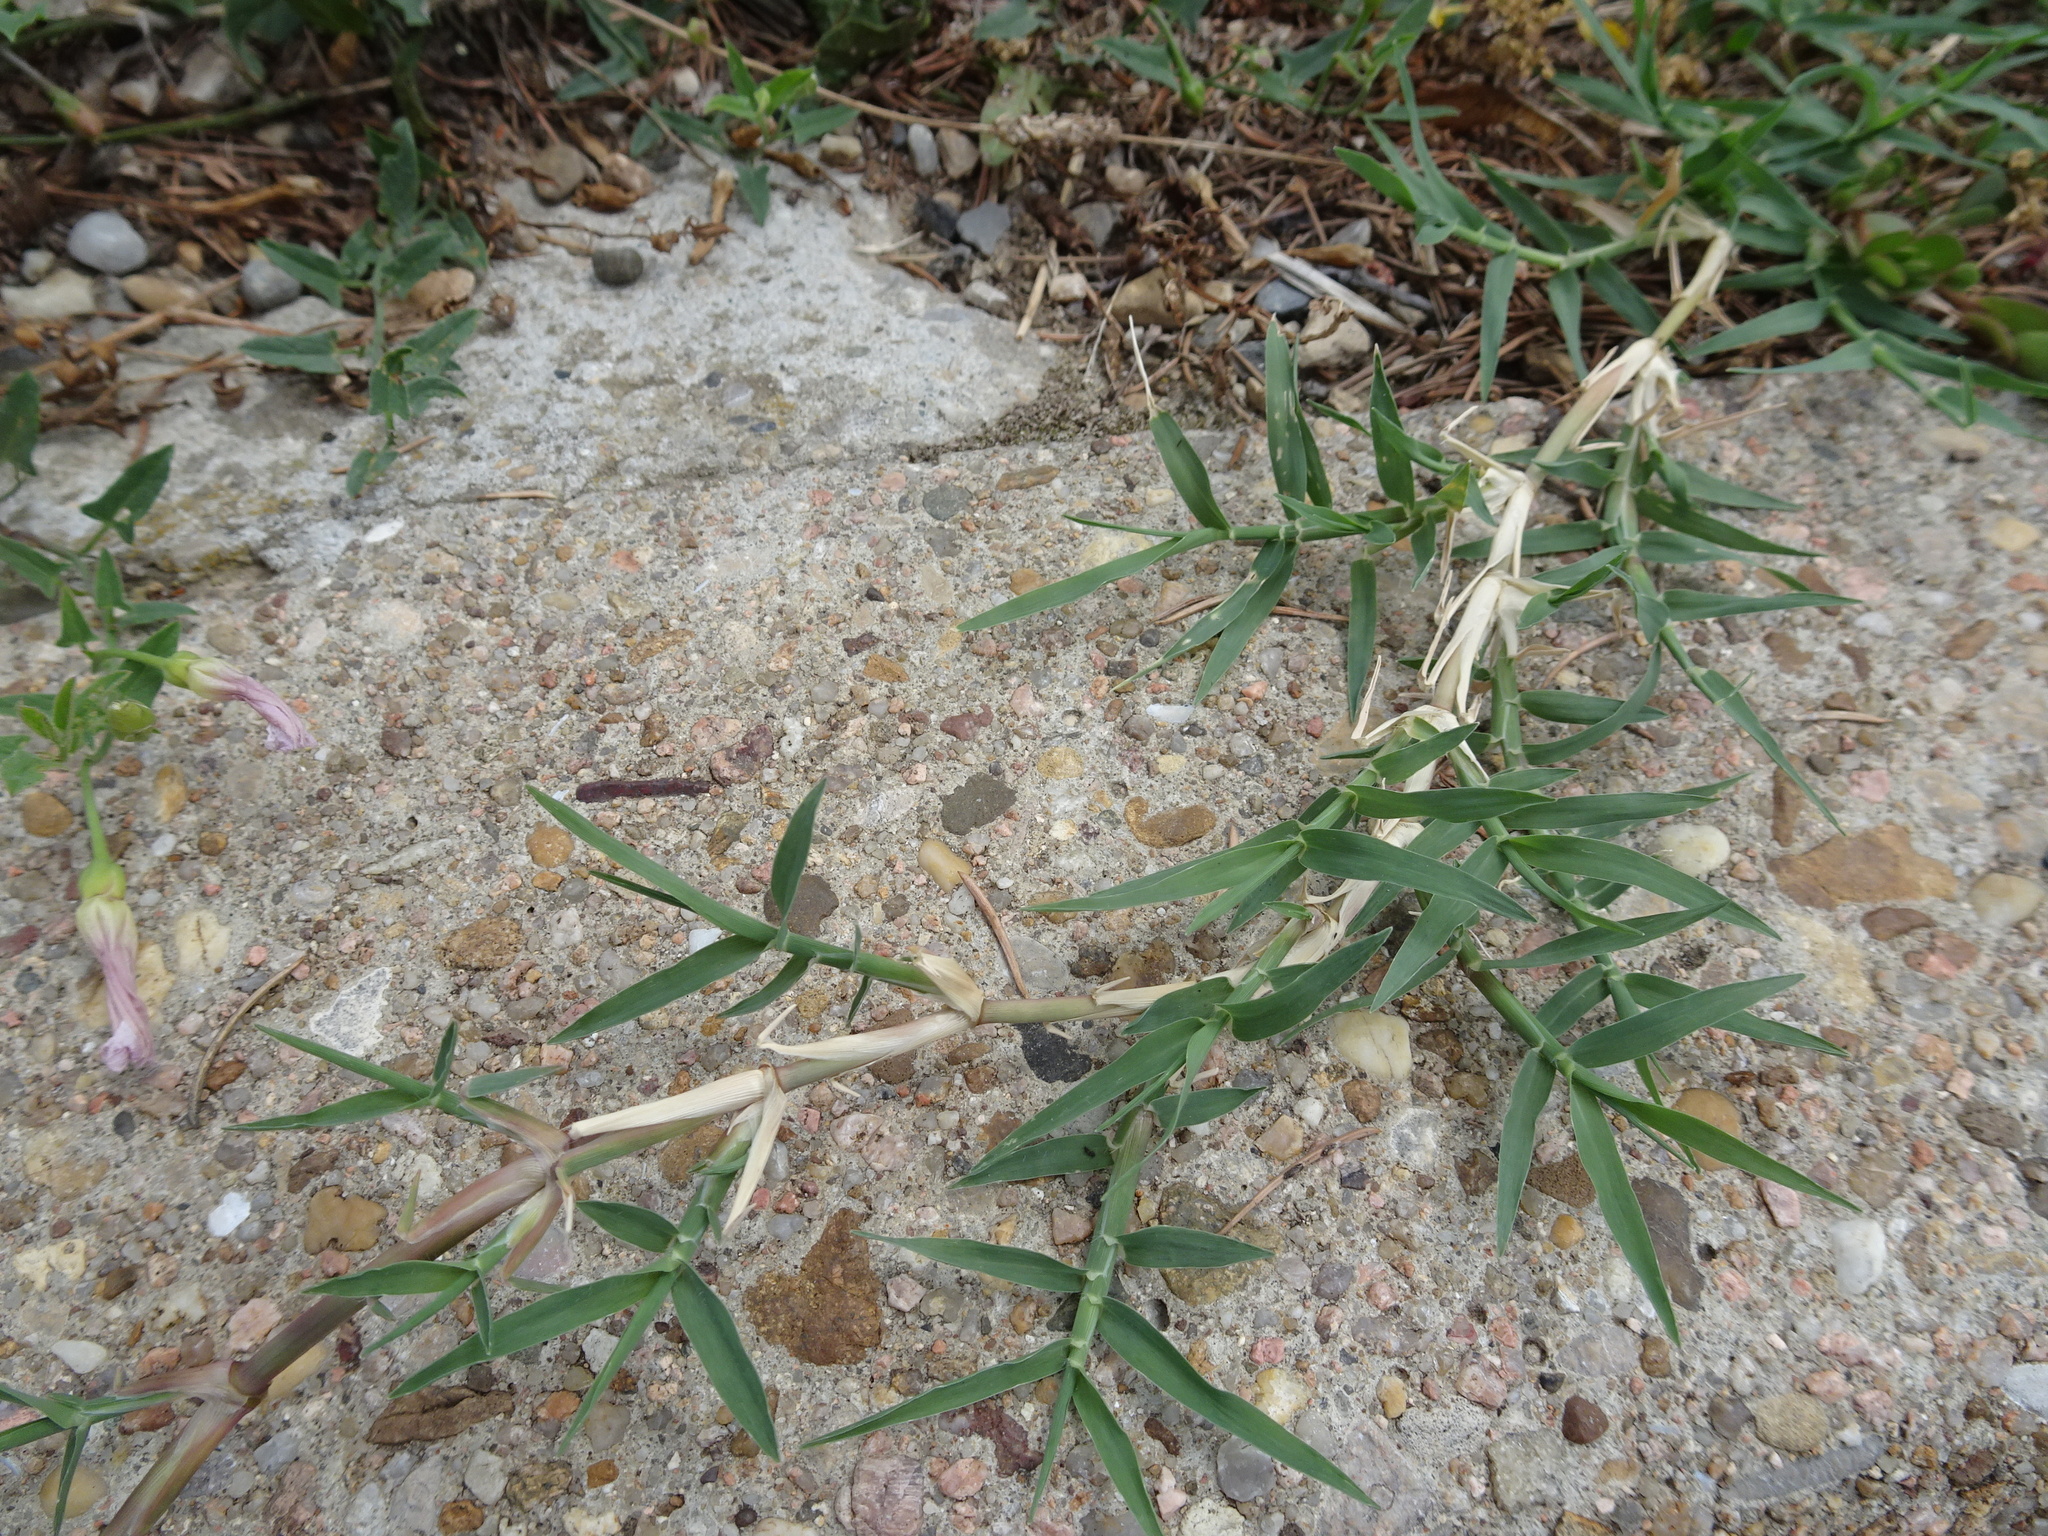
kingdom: Plantae
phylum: Tracheophyta
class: Liliopsida
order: Poales
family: Poaceae
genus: Cynodon
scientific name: Cynodon dactylon
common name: Bermuda grass
